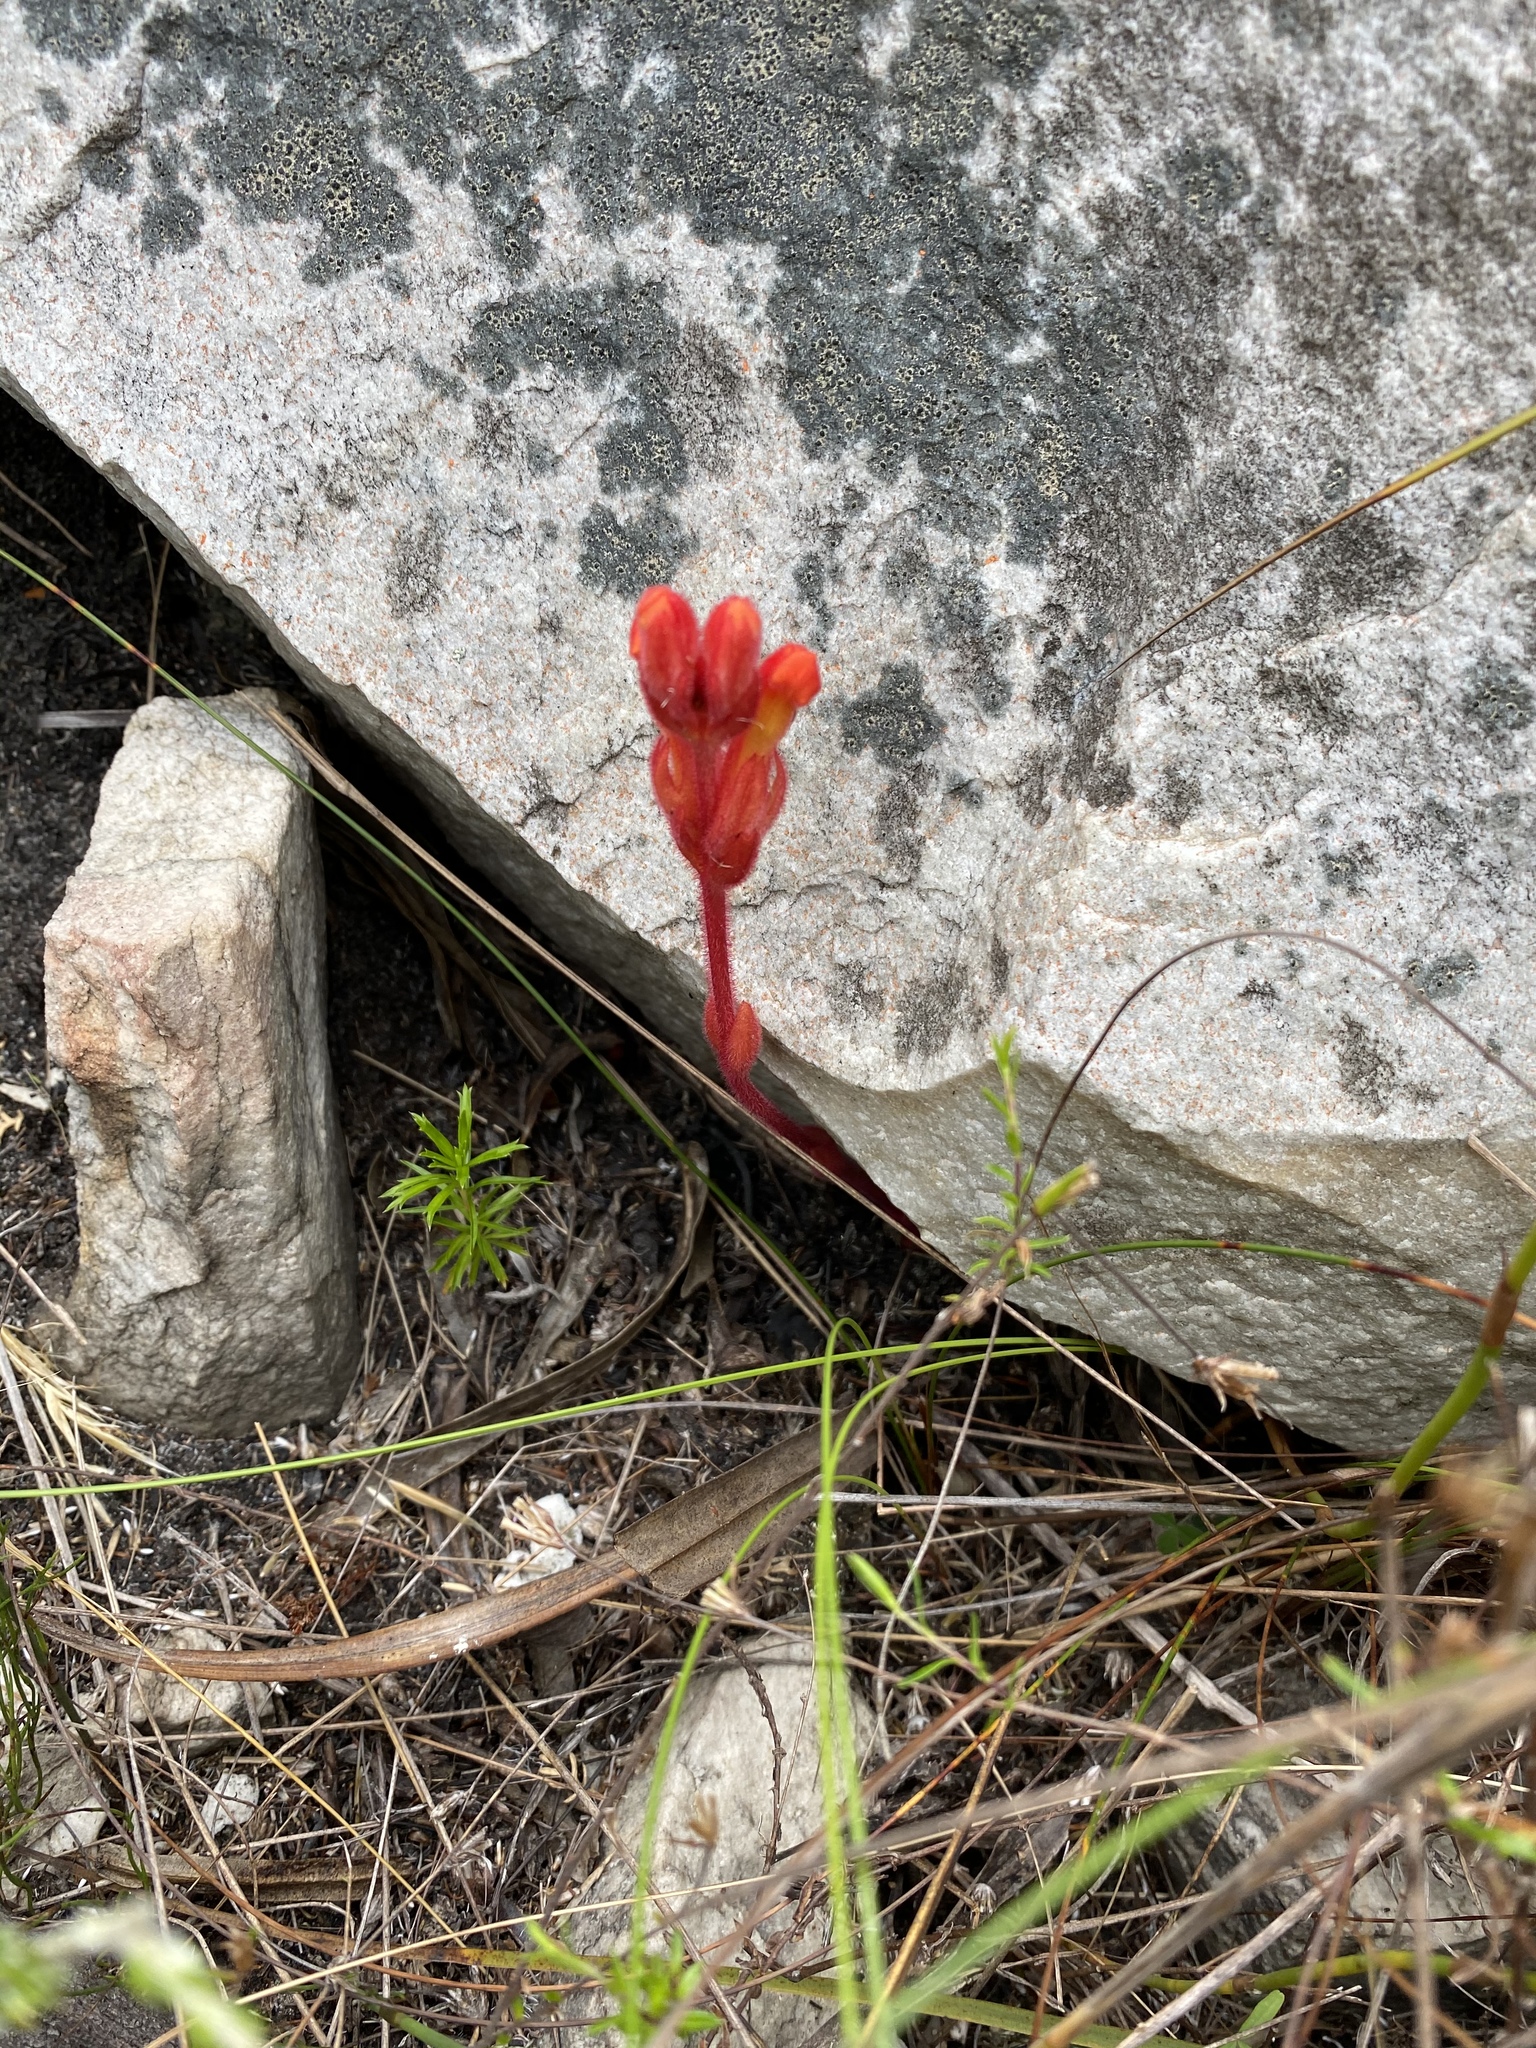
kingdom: Plantae
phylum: Tracheophyta
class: Magnoliopsida
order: Lamiales
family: Orobanchaceae
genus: Harveya
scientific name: Harveya bolusii
